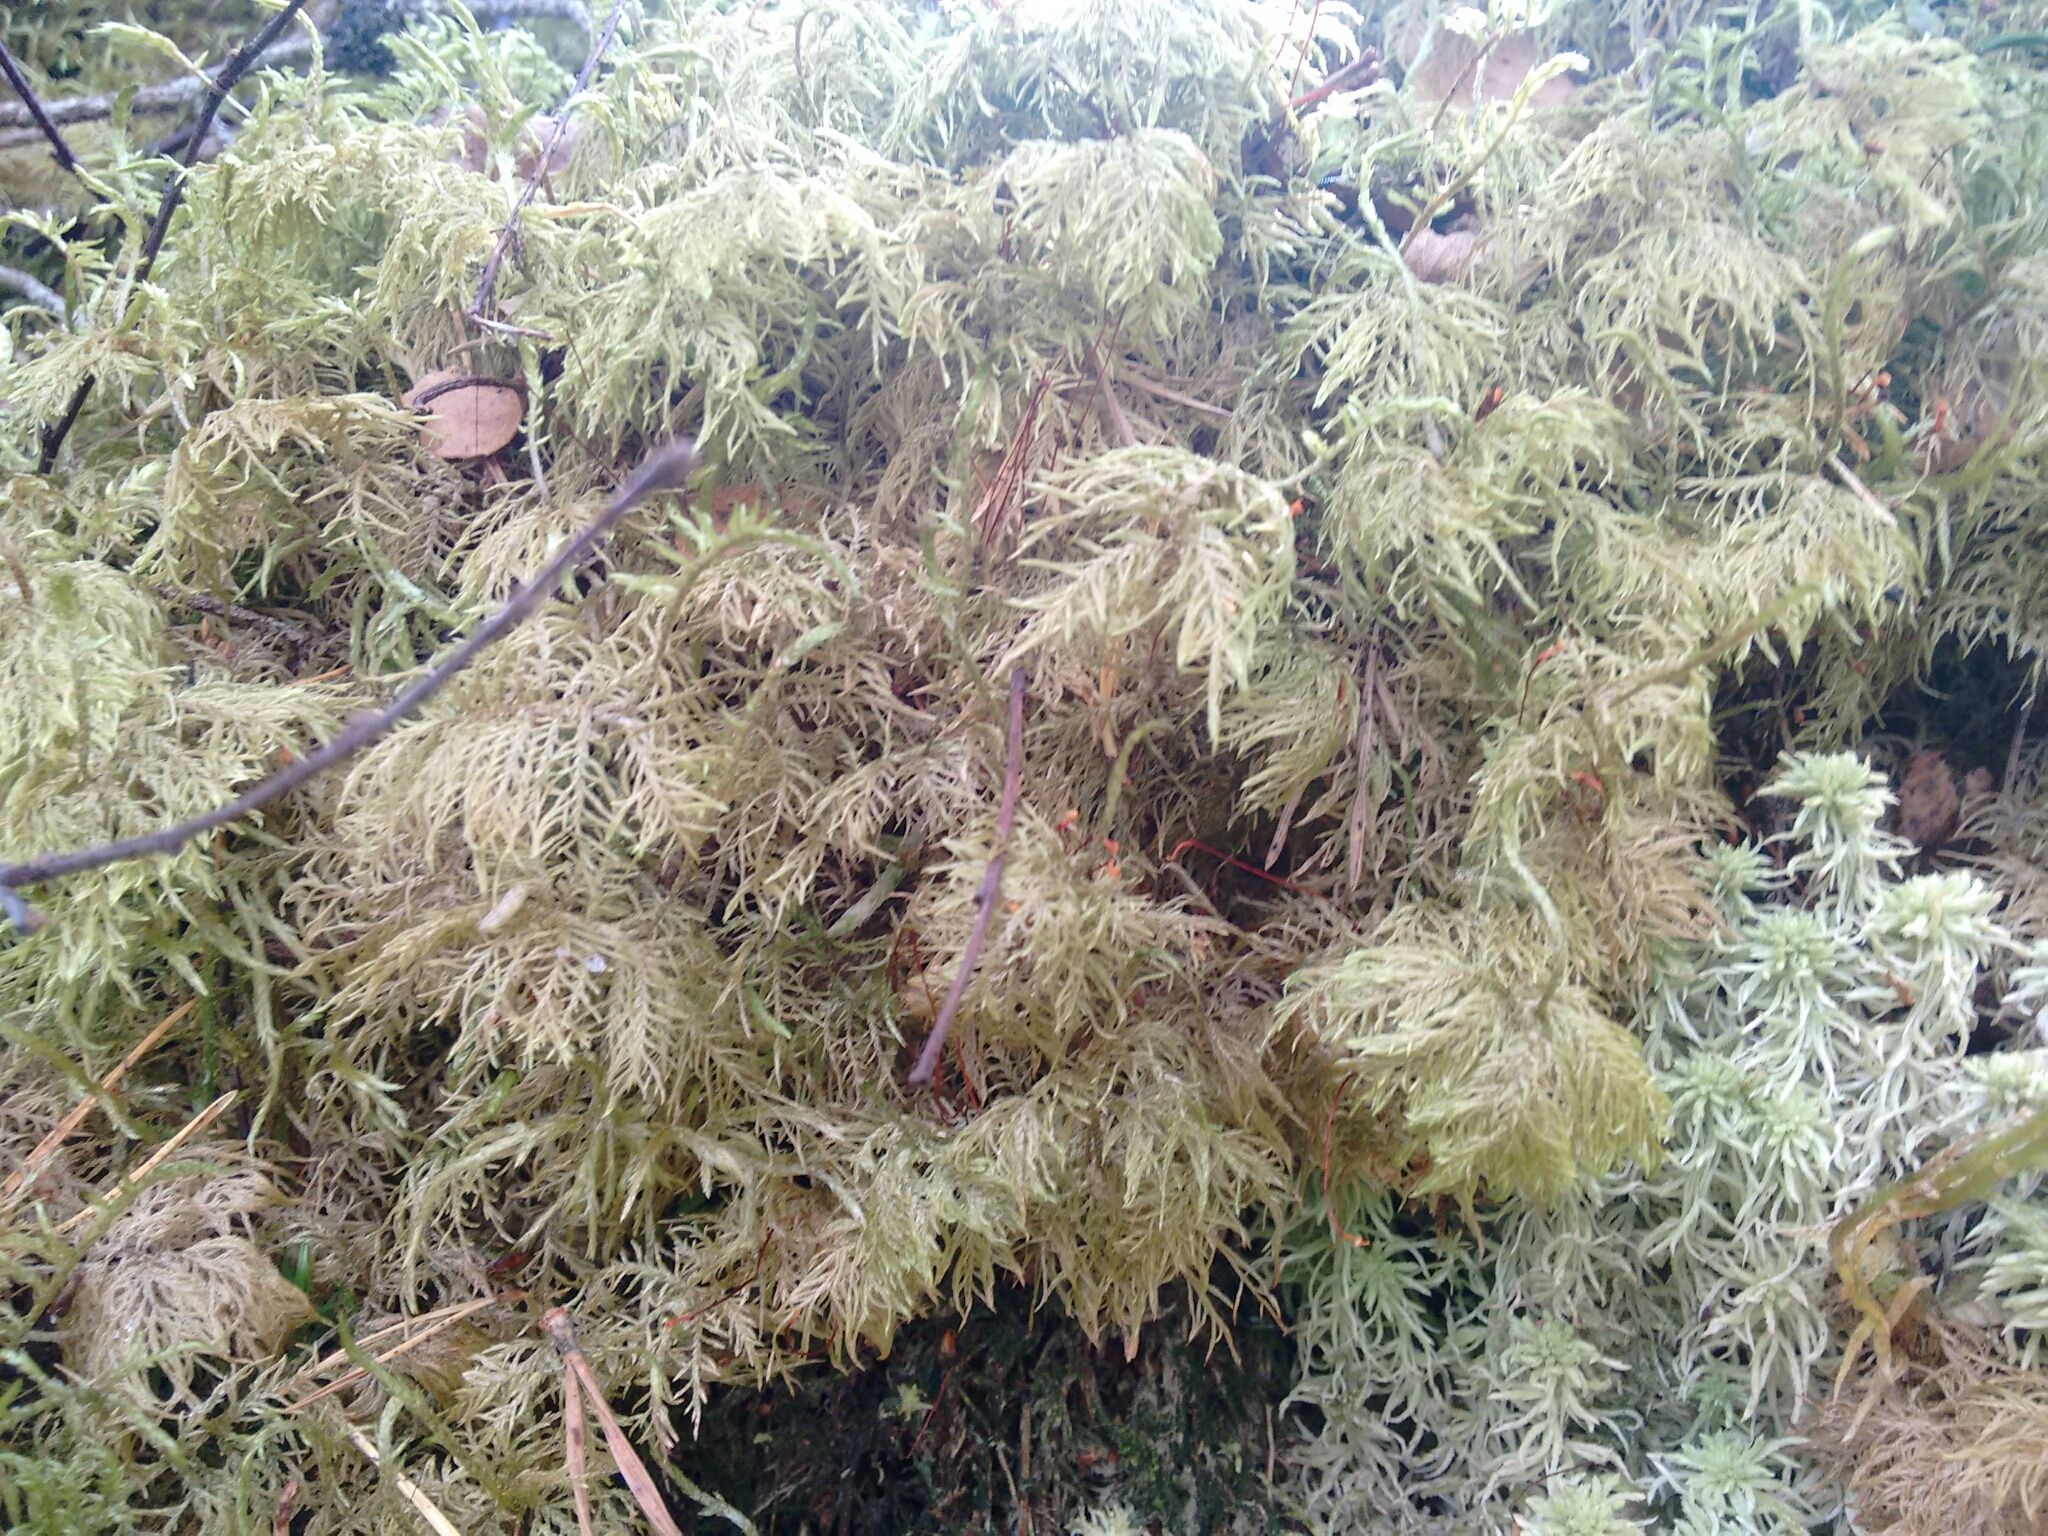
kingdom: Plantae
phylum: Bryophyta
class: Bryopsida
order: Hypnales
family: Hylocomiaceae
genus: Hylocomium
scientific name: Hylocomium splendens
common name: Stairstep moss
